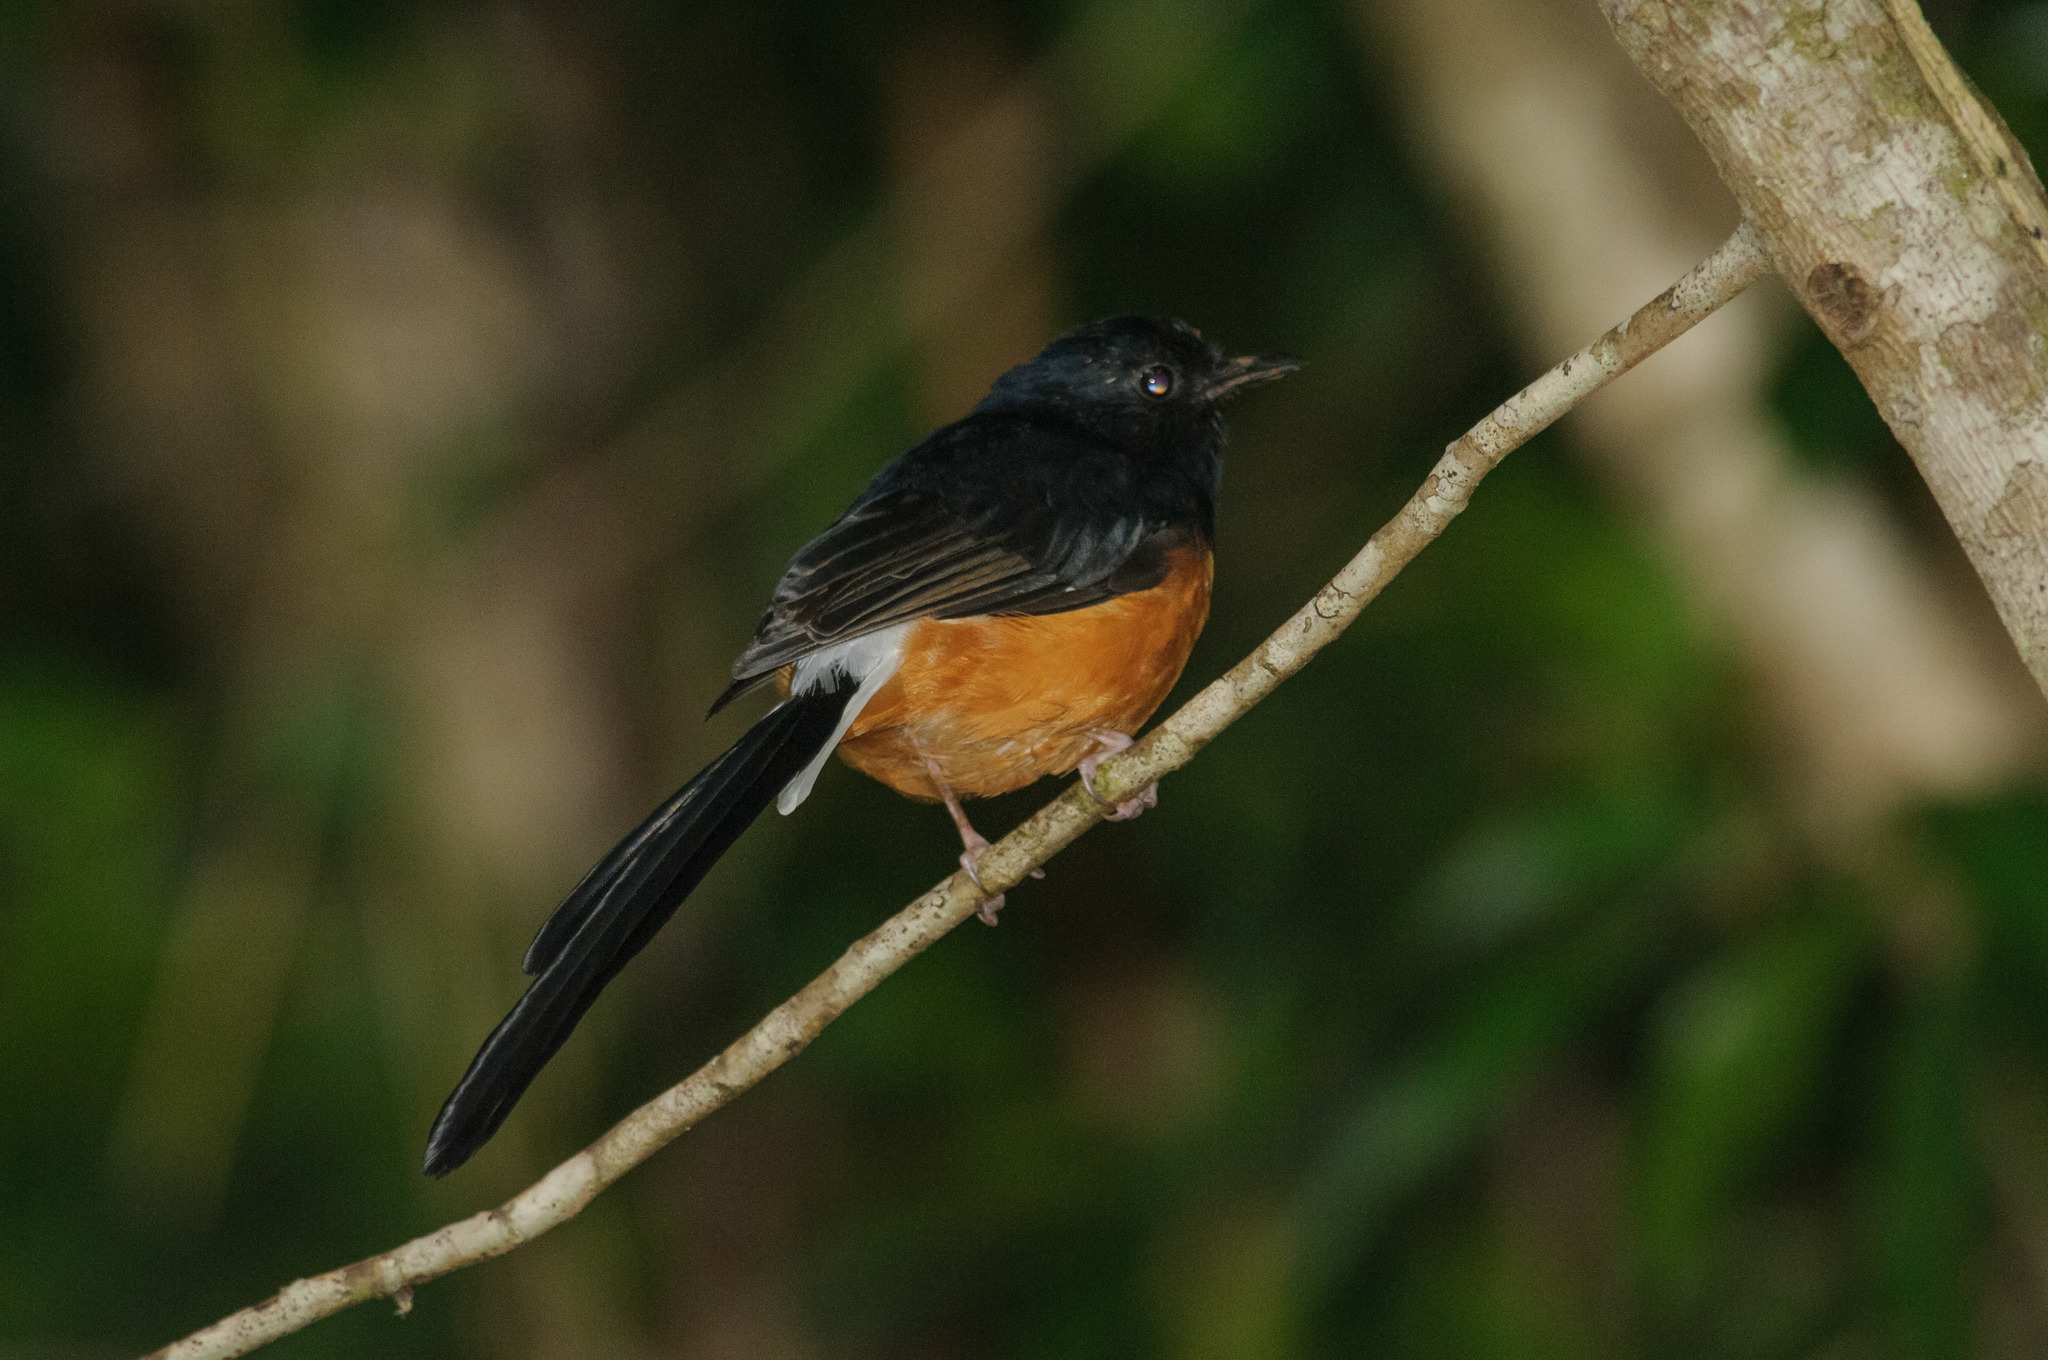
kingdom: Animalia
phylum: Chordata
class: Aves
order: Passeriformes
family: Muscicapidae
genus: Copsychus
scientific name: Copsychus malabaricus
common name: White-rumped shama
